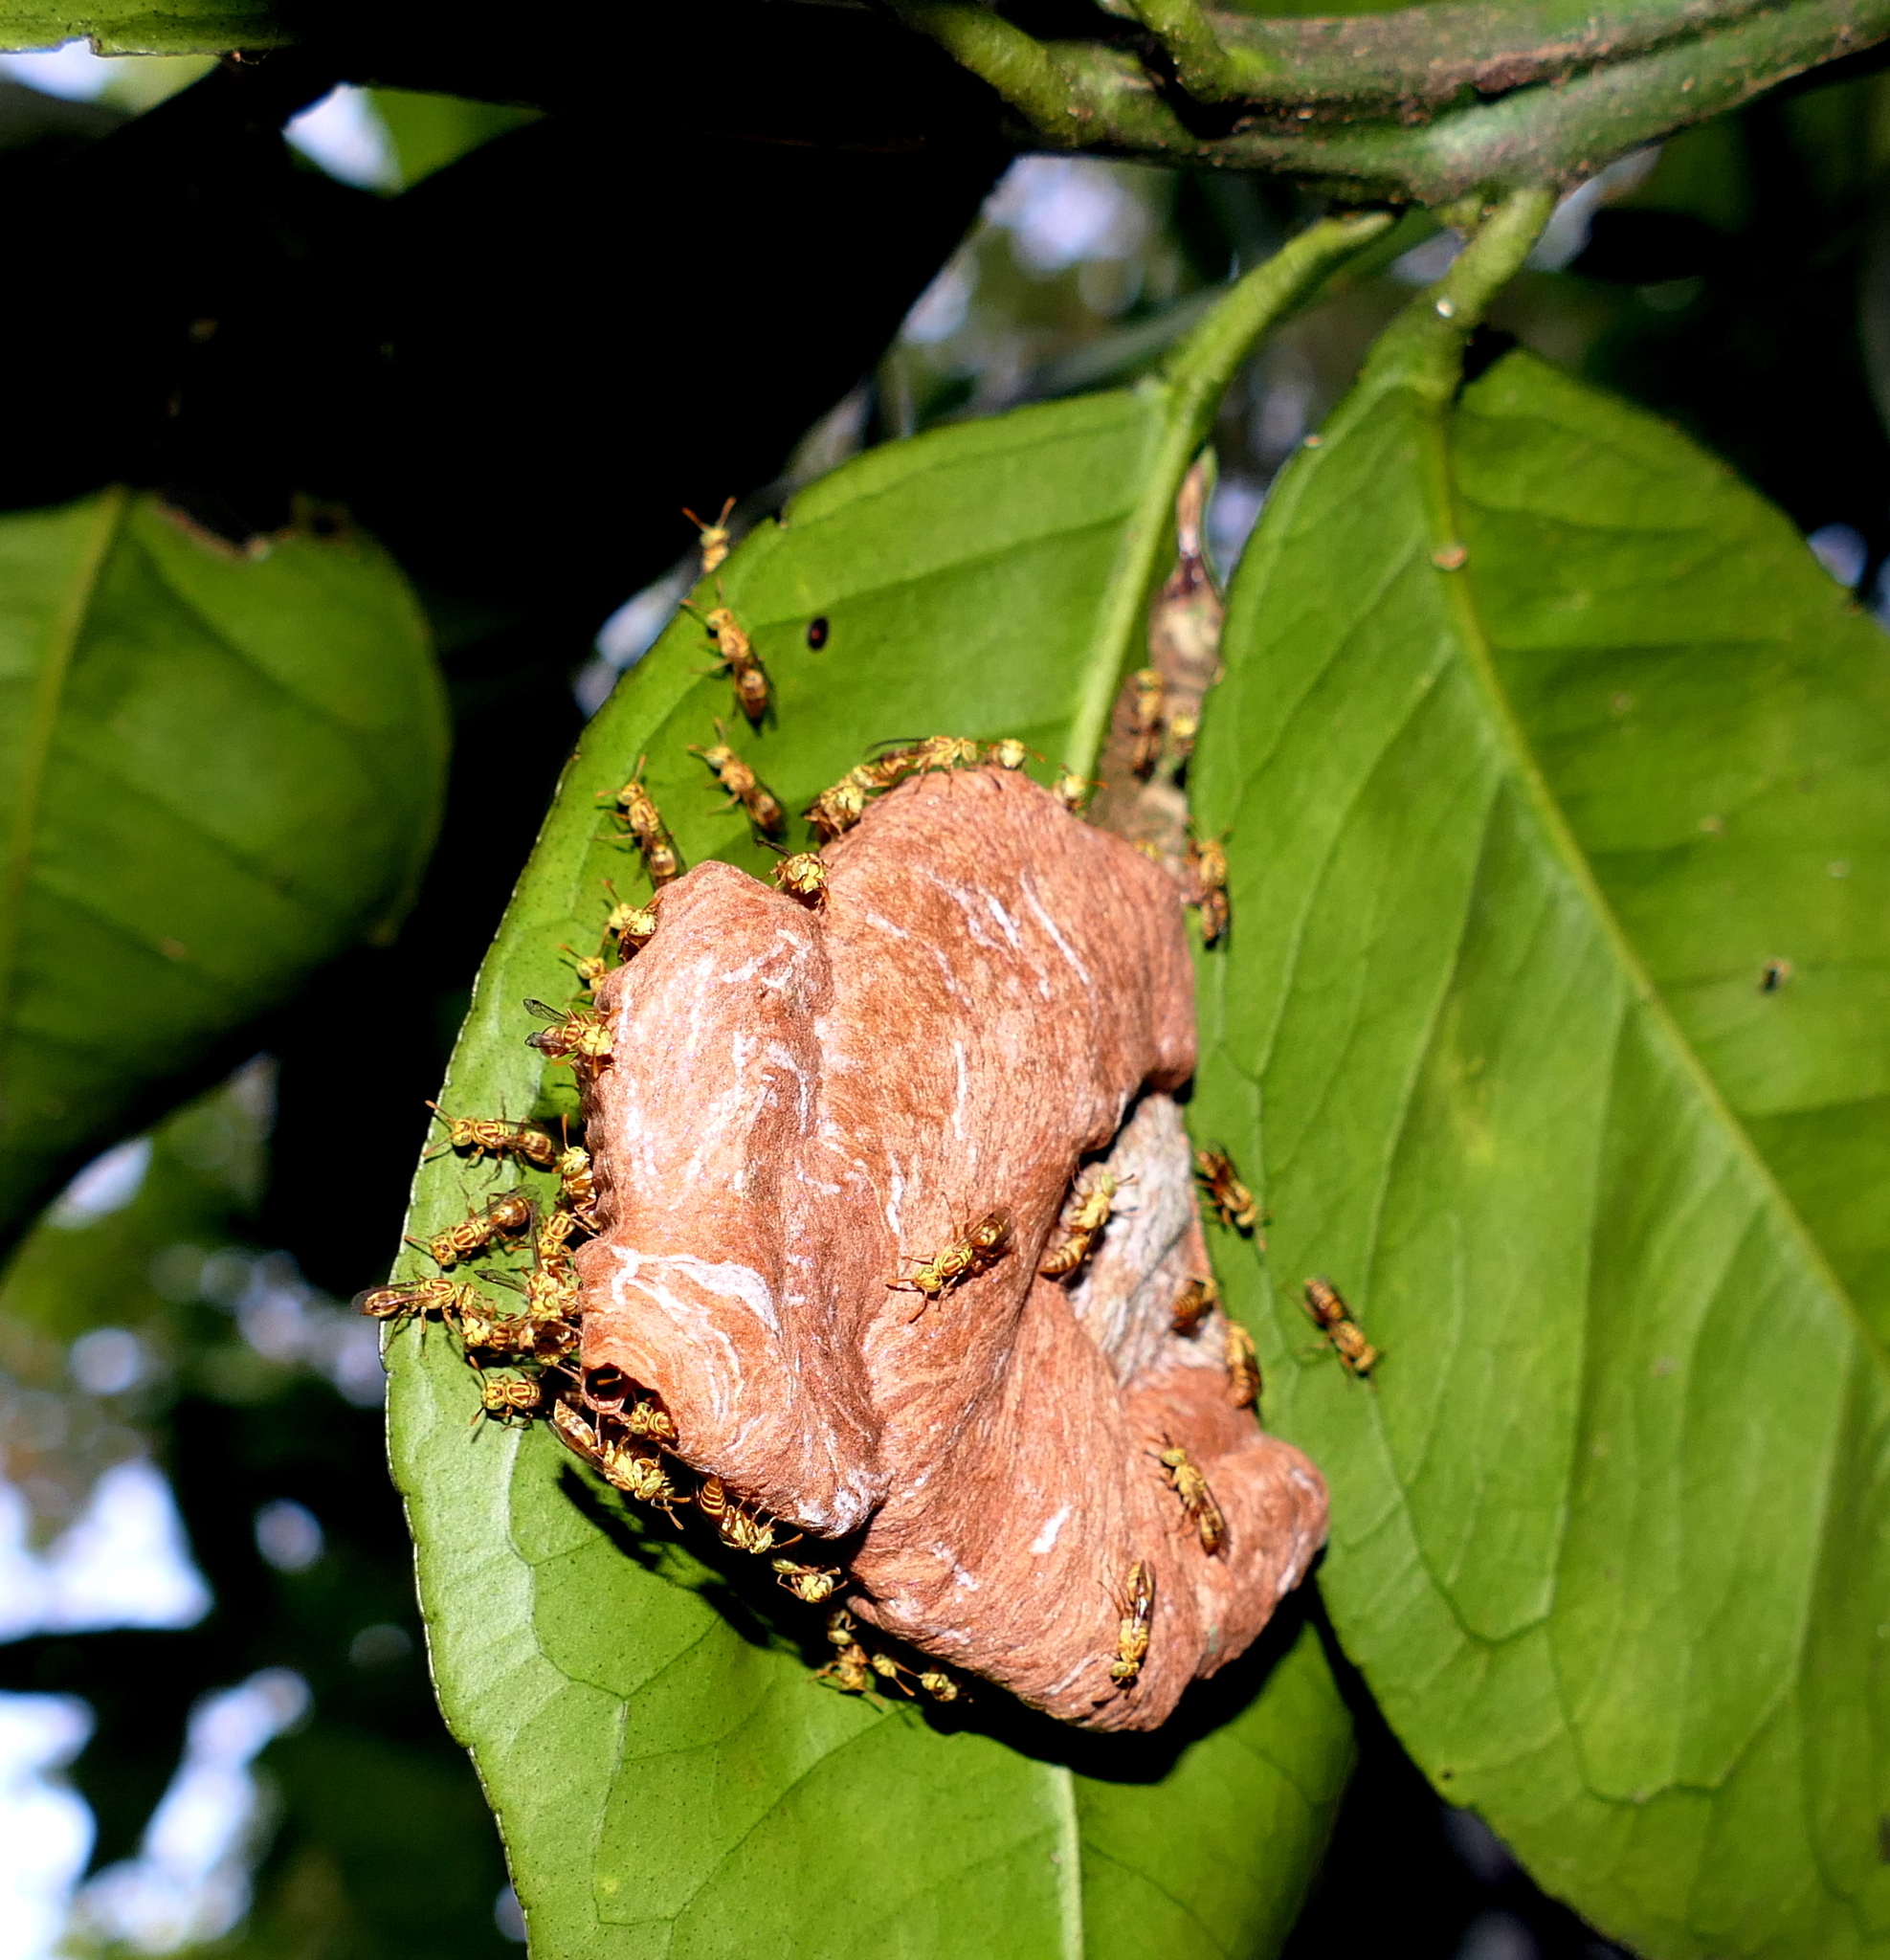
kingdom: Animalia
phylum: Arthropoda
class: Insecta
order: Hymenoptera
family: Vespidae
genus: Protopolybia
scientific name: Protopolybia potiguara
